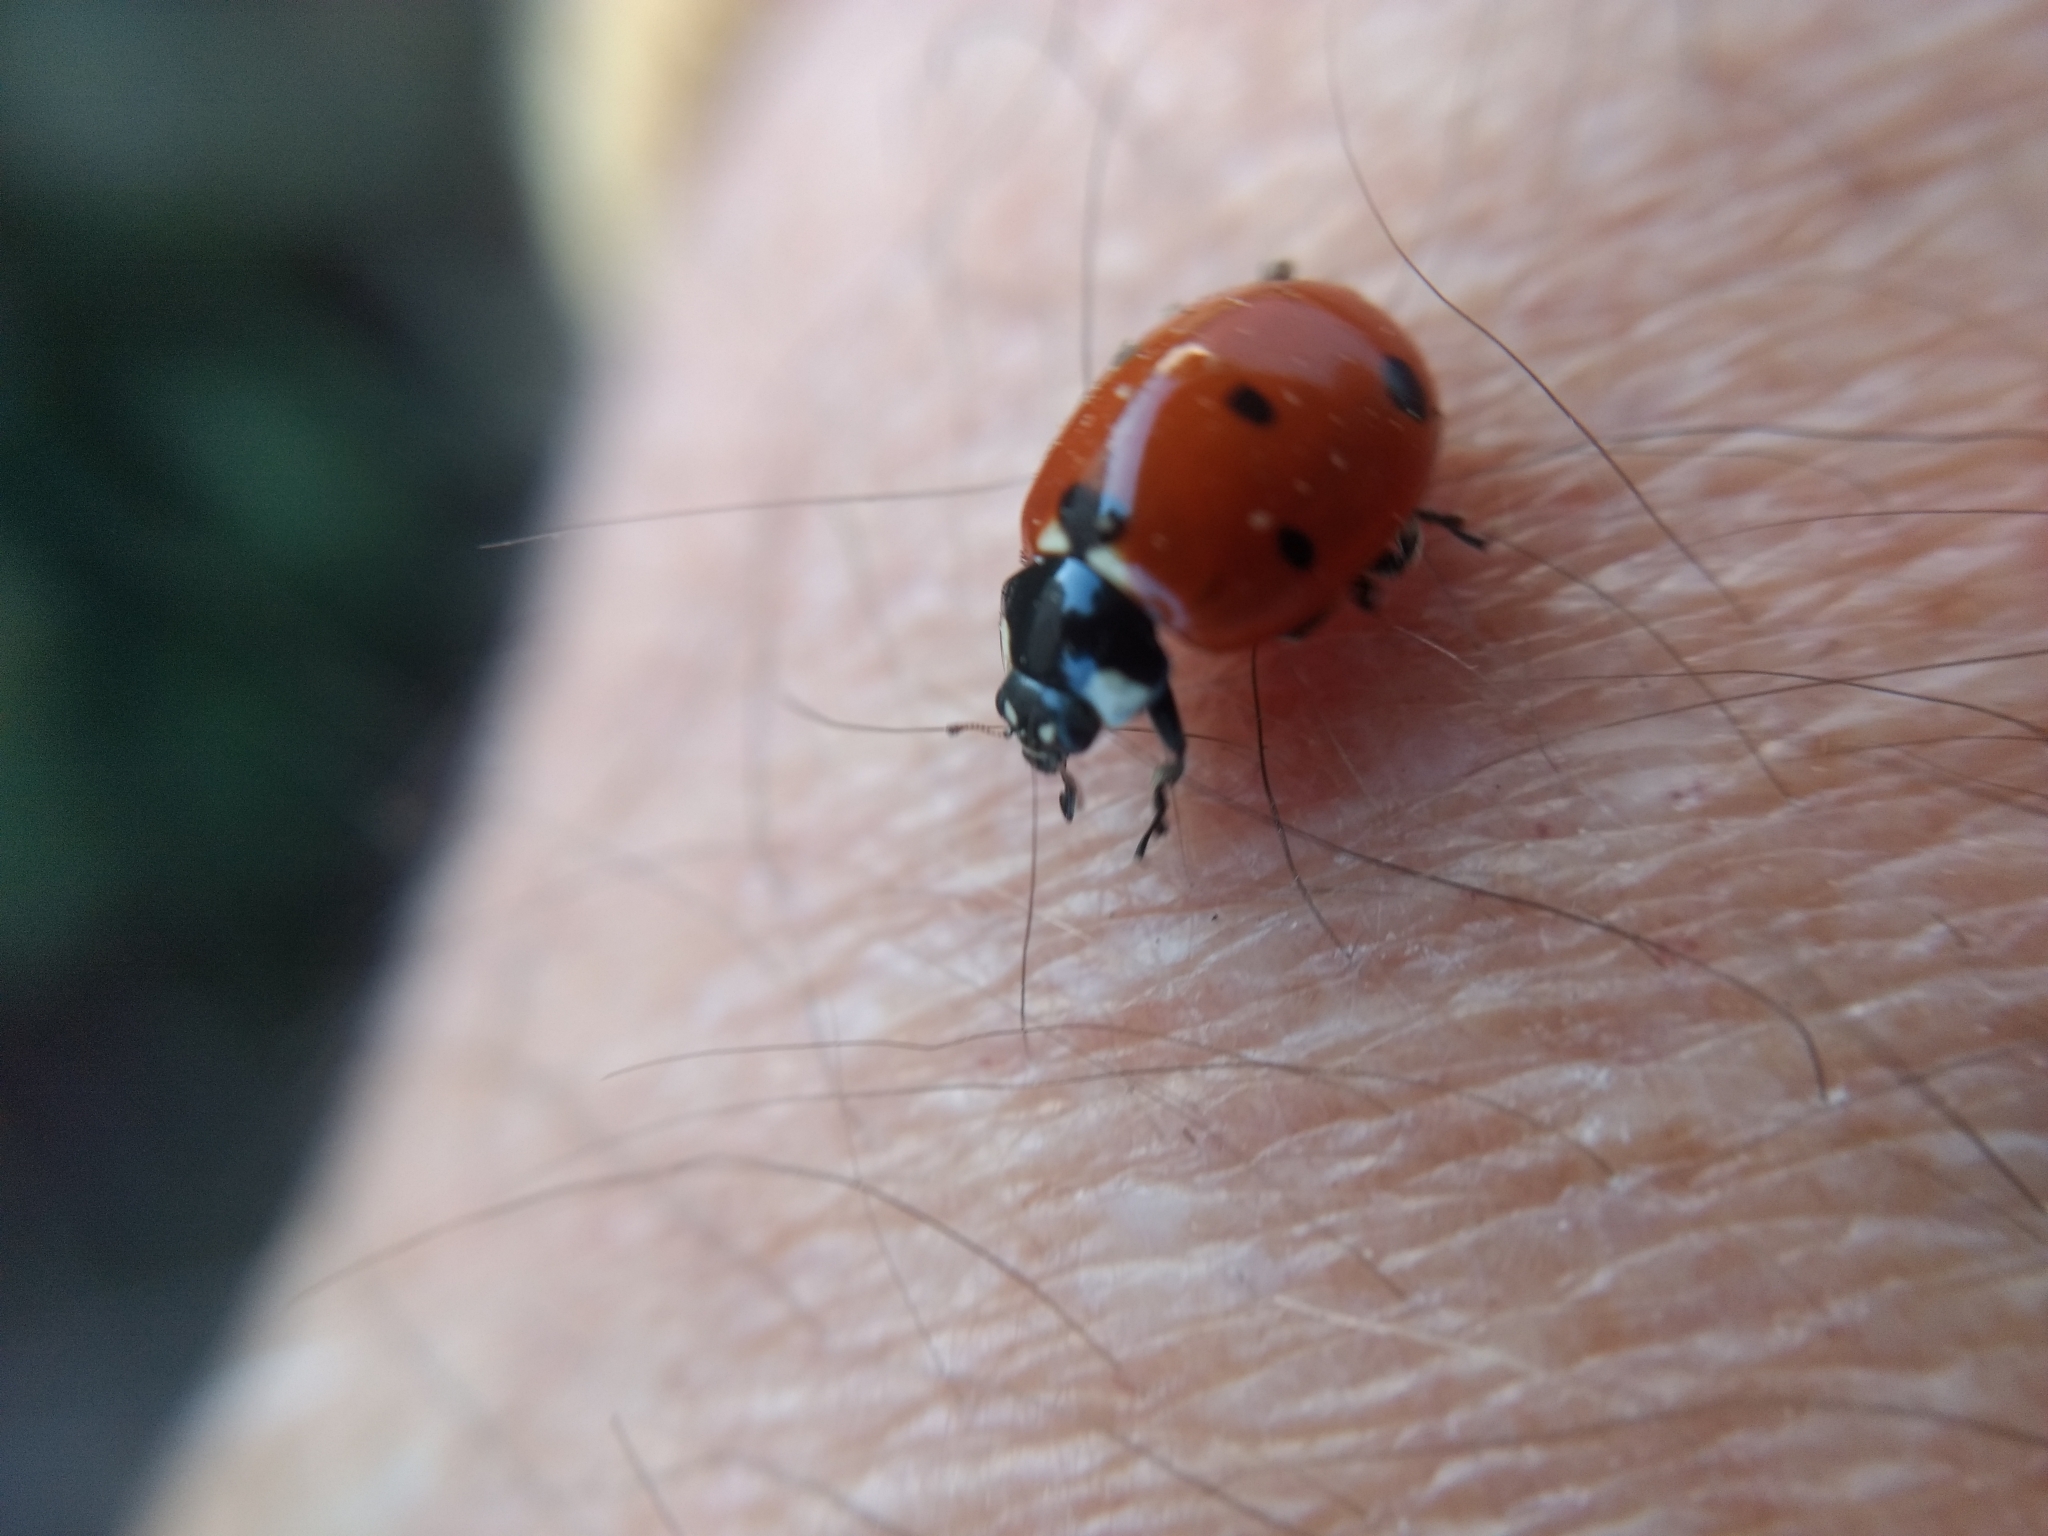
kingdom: Animalia
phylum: Arthropoda
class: Insecta
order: Coleoptera
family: Coccinellidae
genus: Coccinella
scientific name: Coccinella septempunctata
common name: Sevenspotted lady beetle
